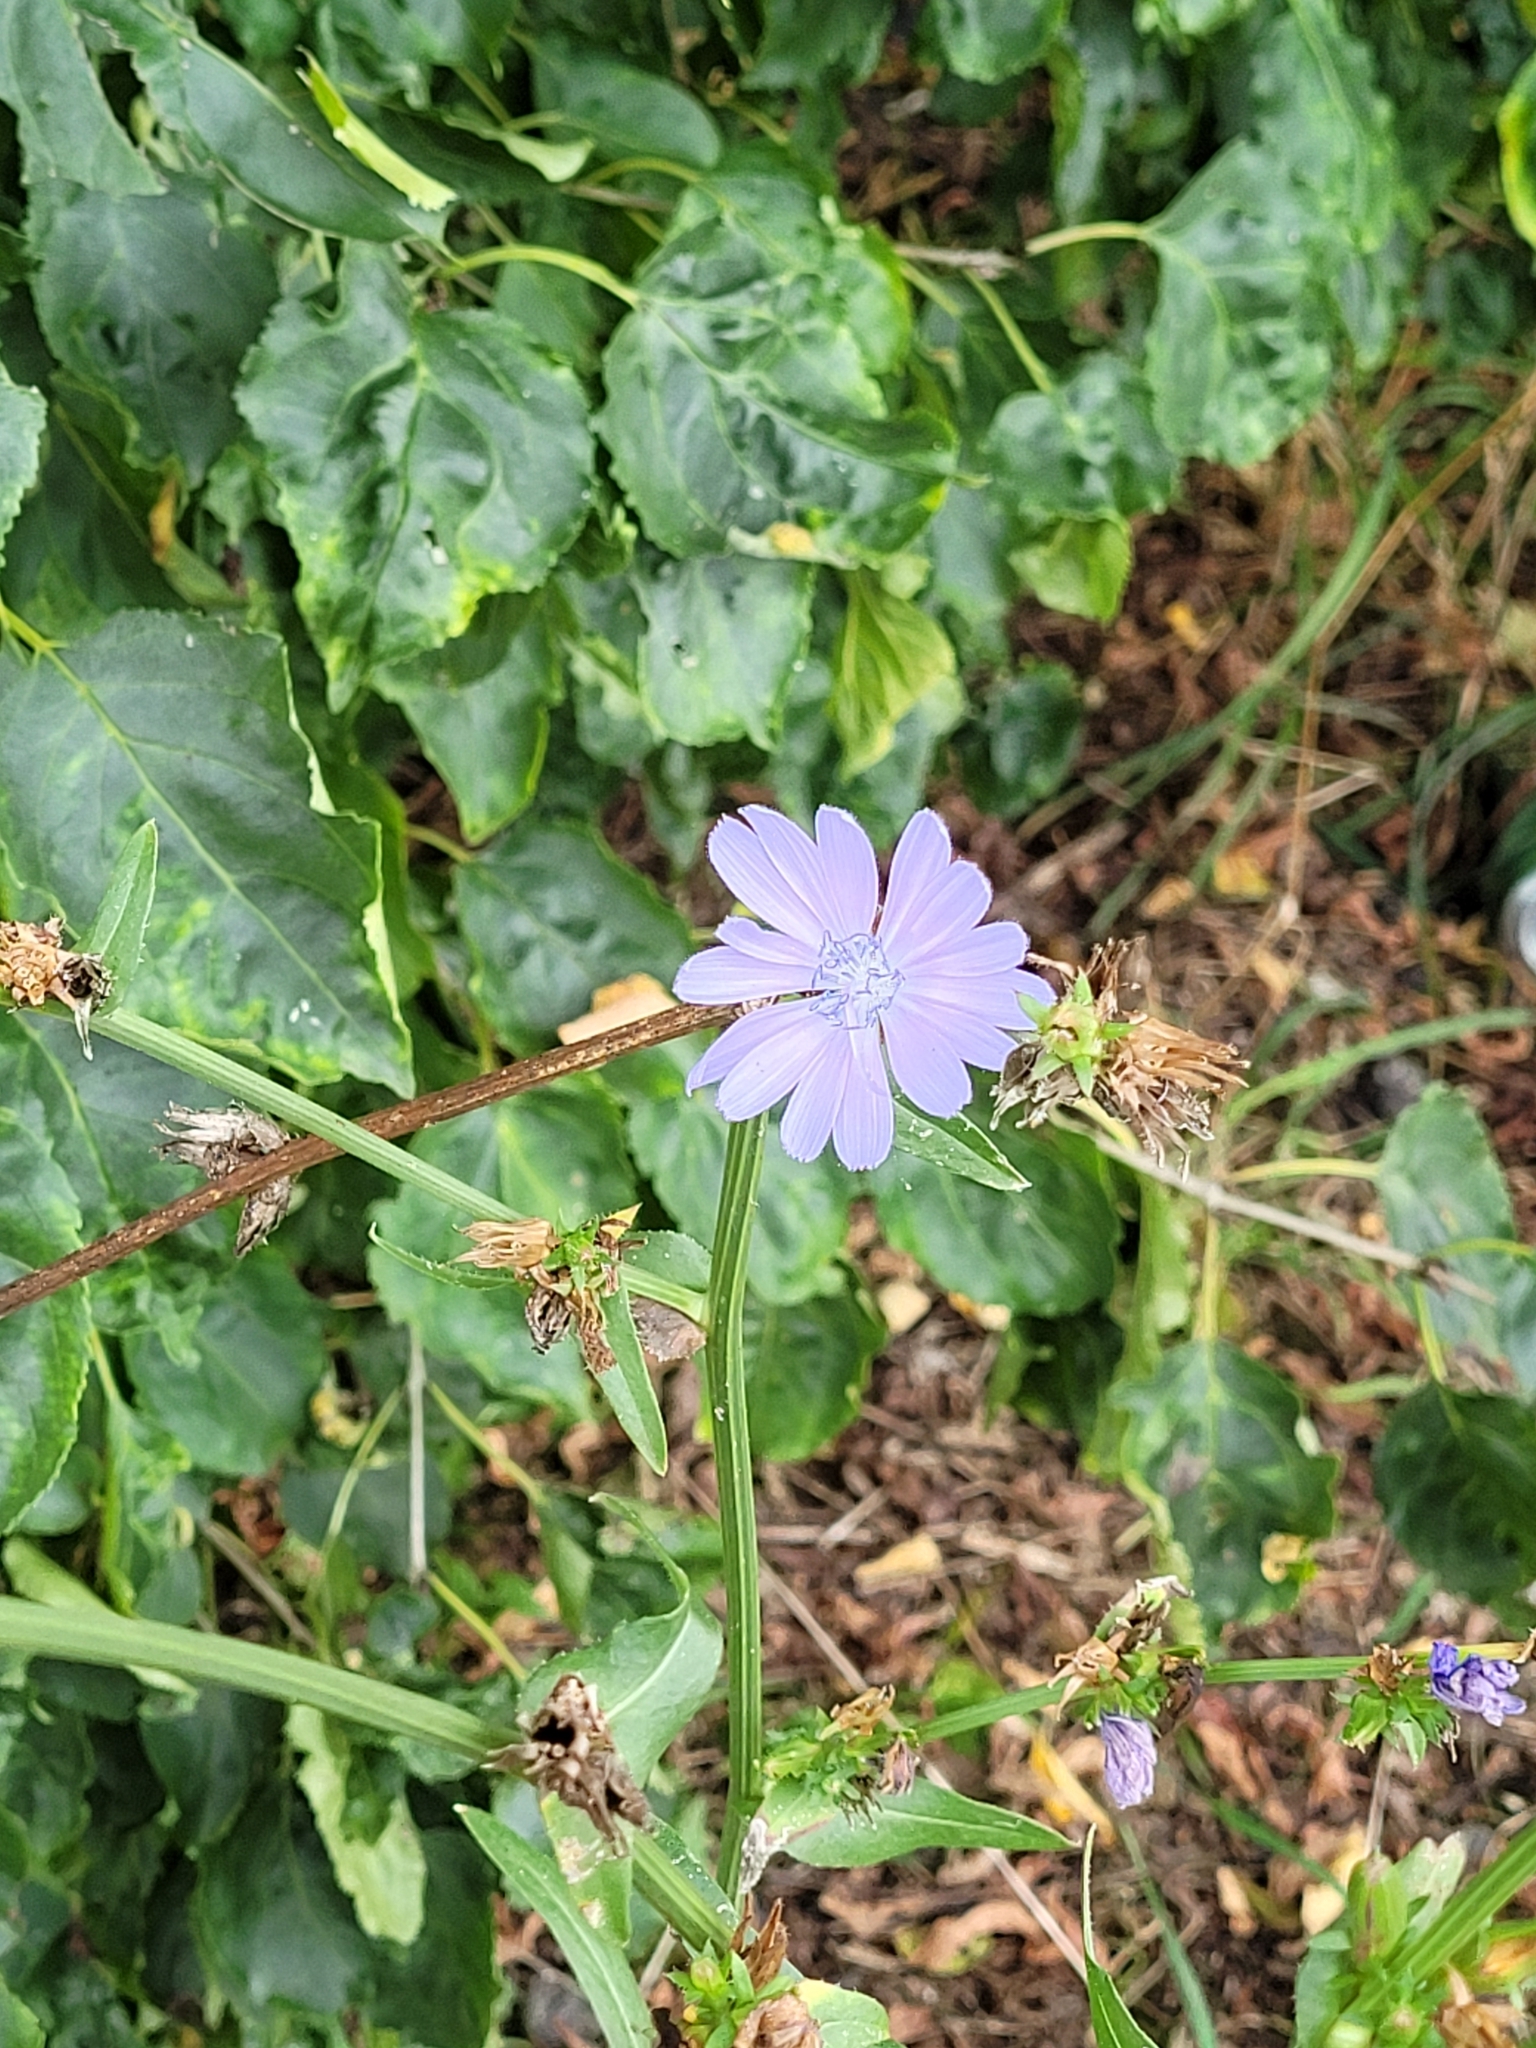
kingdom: Plantae
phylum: Tracheophyta
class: Magnoliopsida
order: Asterales
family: Asteraceae
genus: Cichorium
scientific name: Cichorium intybus
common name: Chicory
